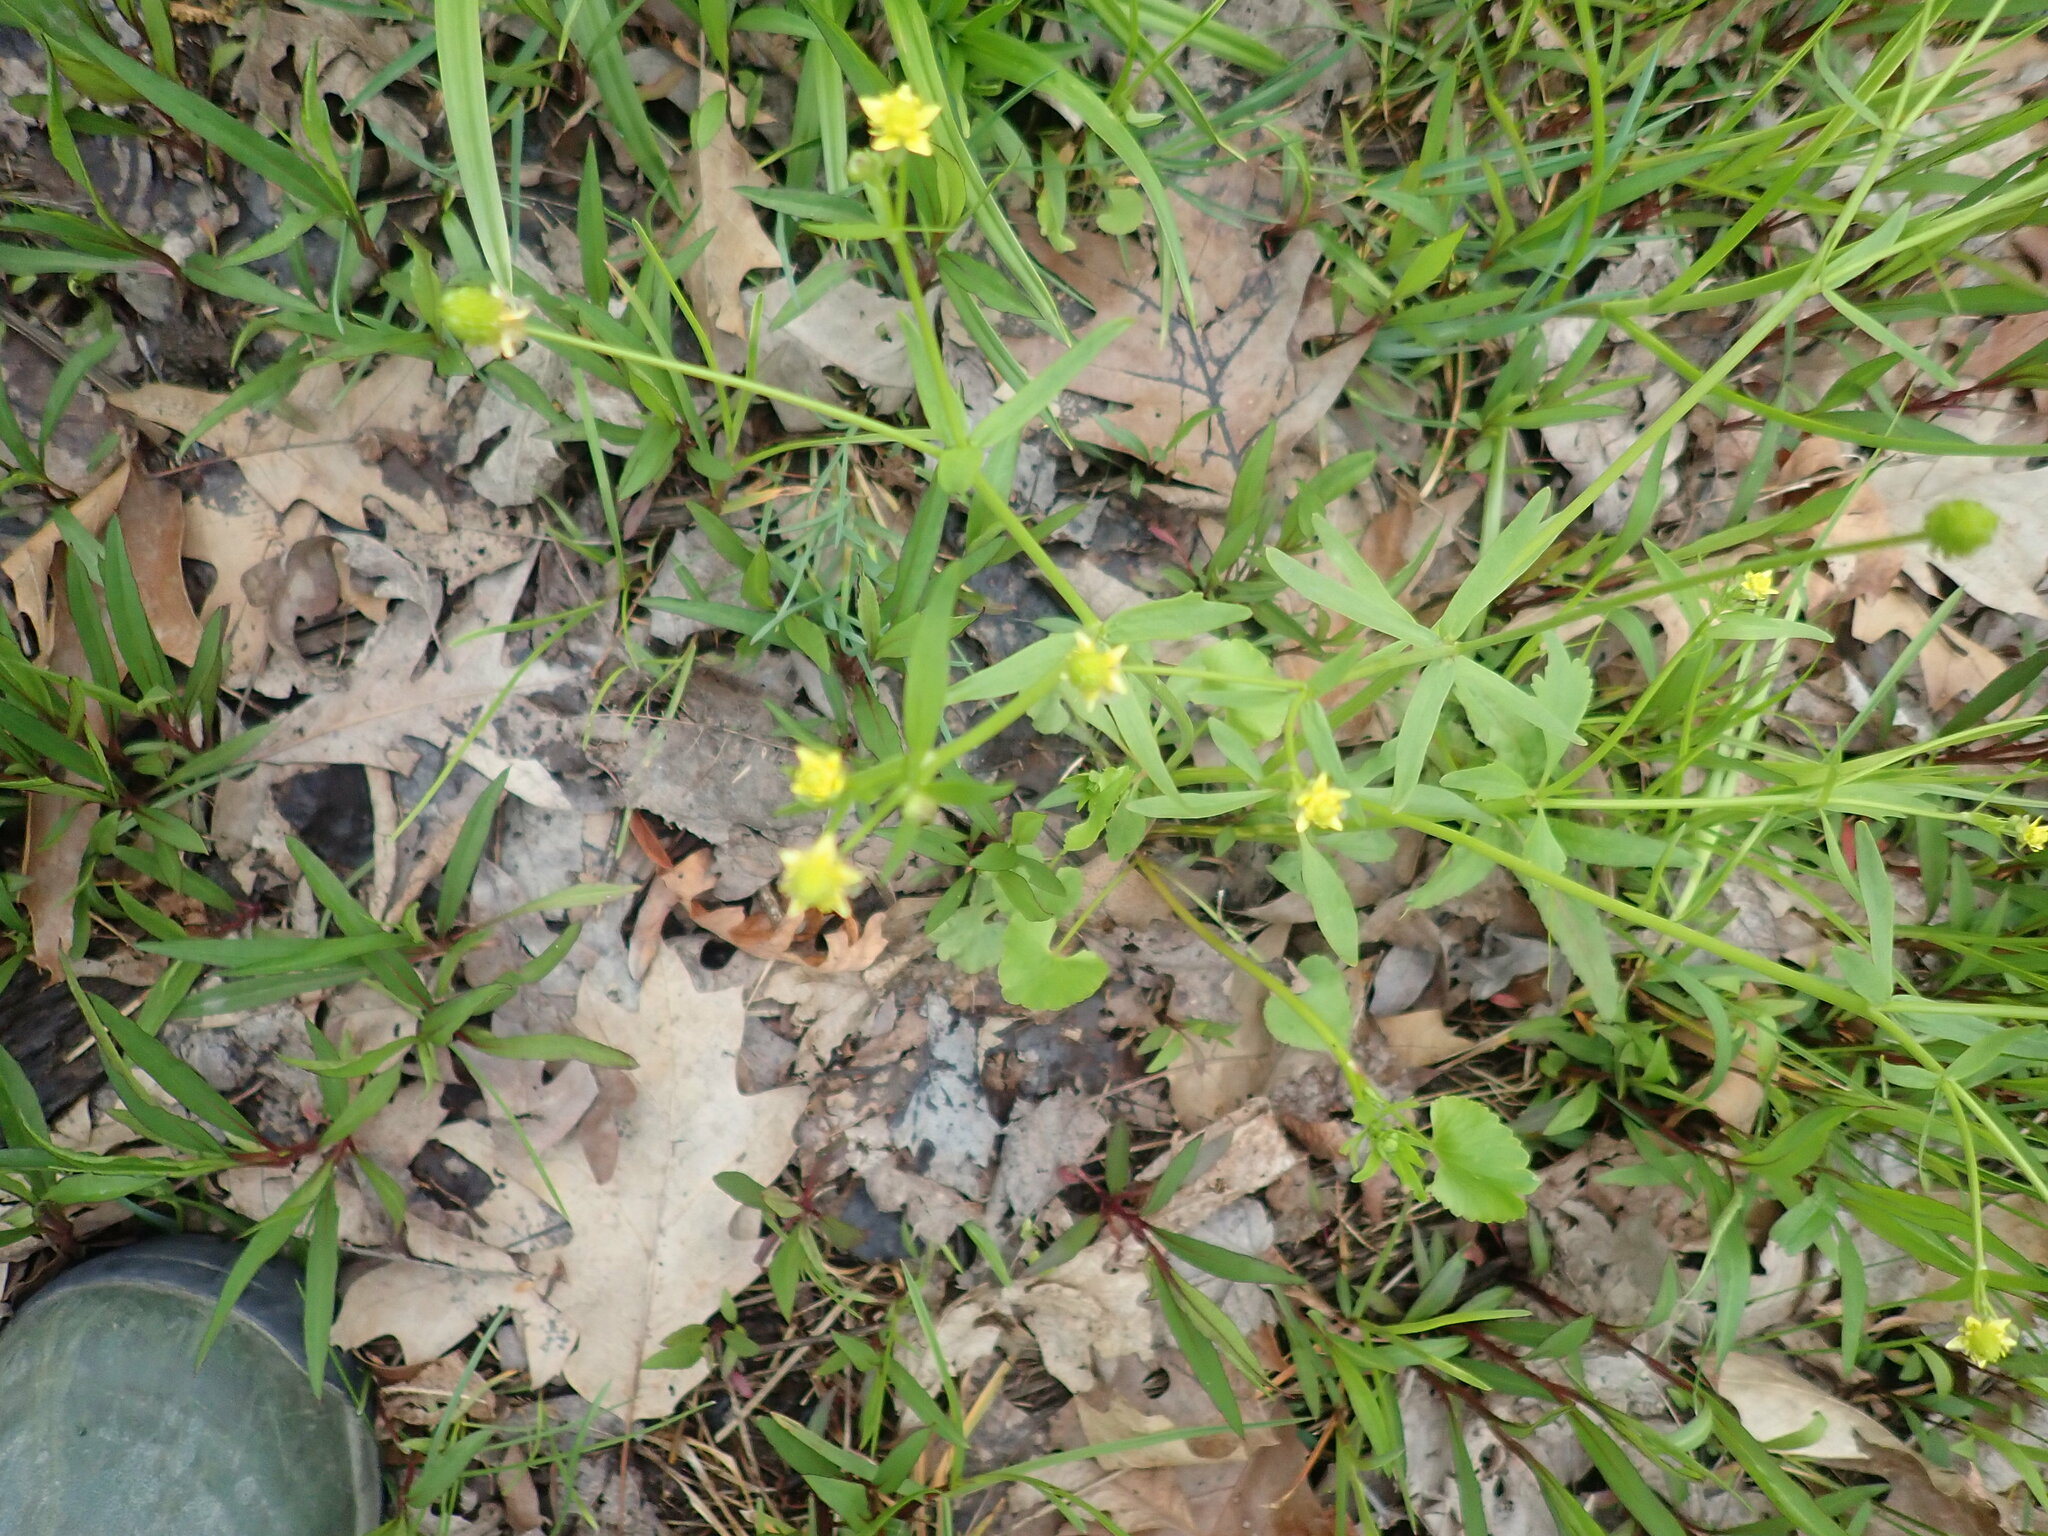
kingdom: Plantae
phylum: Tracheophyta
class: Magnoliopsida
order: Ranunculales
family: Ranunculaceae
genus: Ranunculus
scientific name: Ranunculus abortivus
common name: Early wood buttercup
